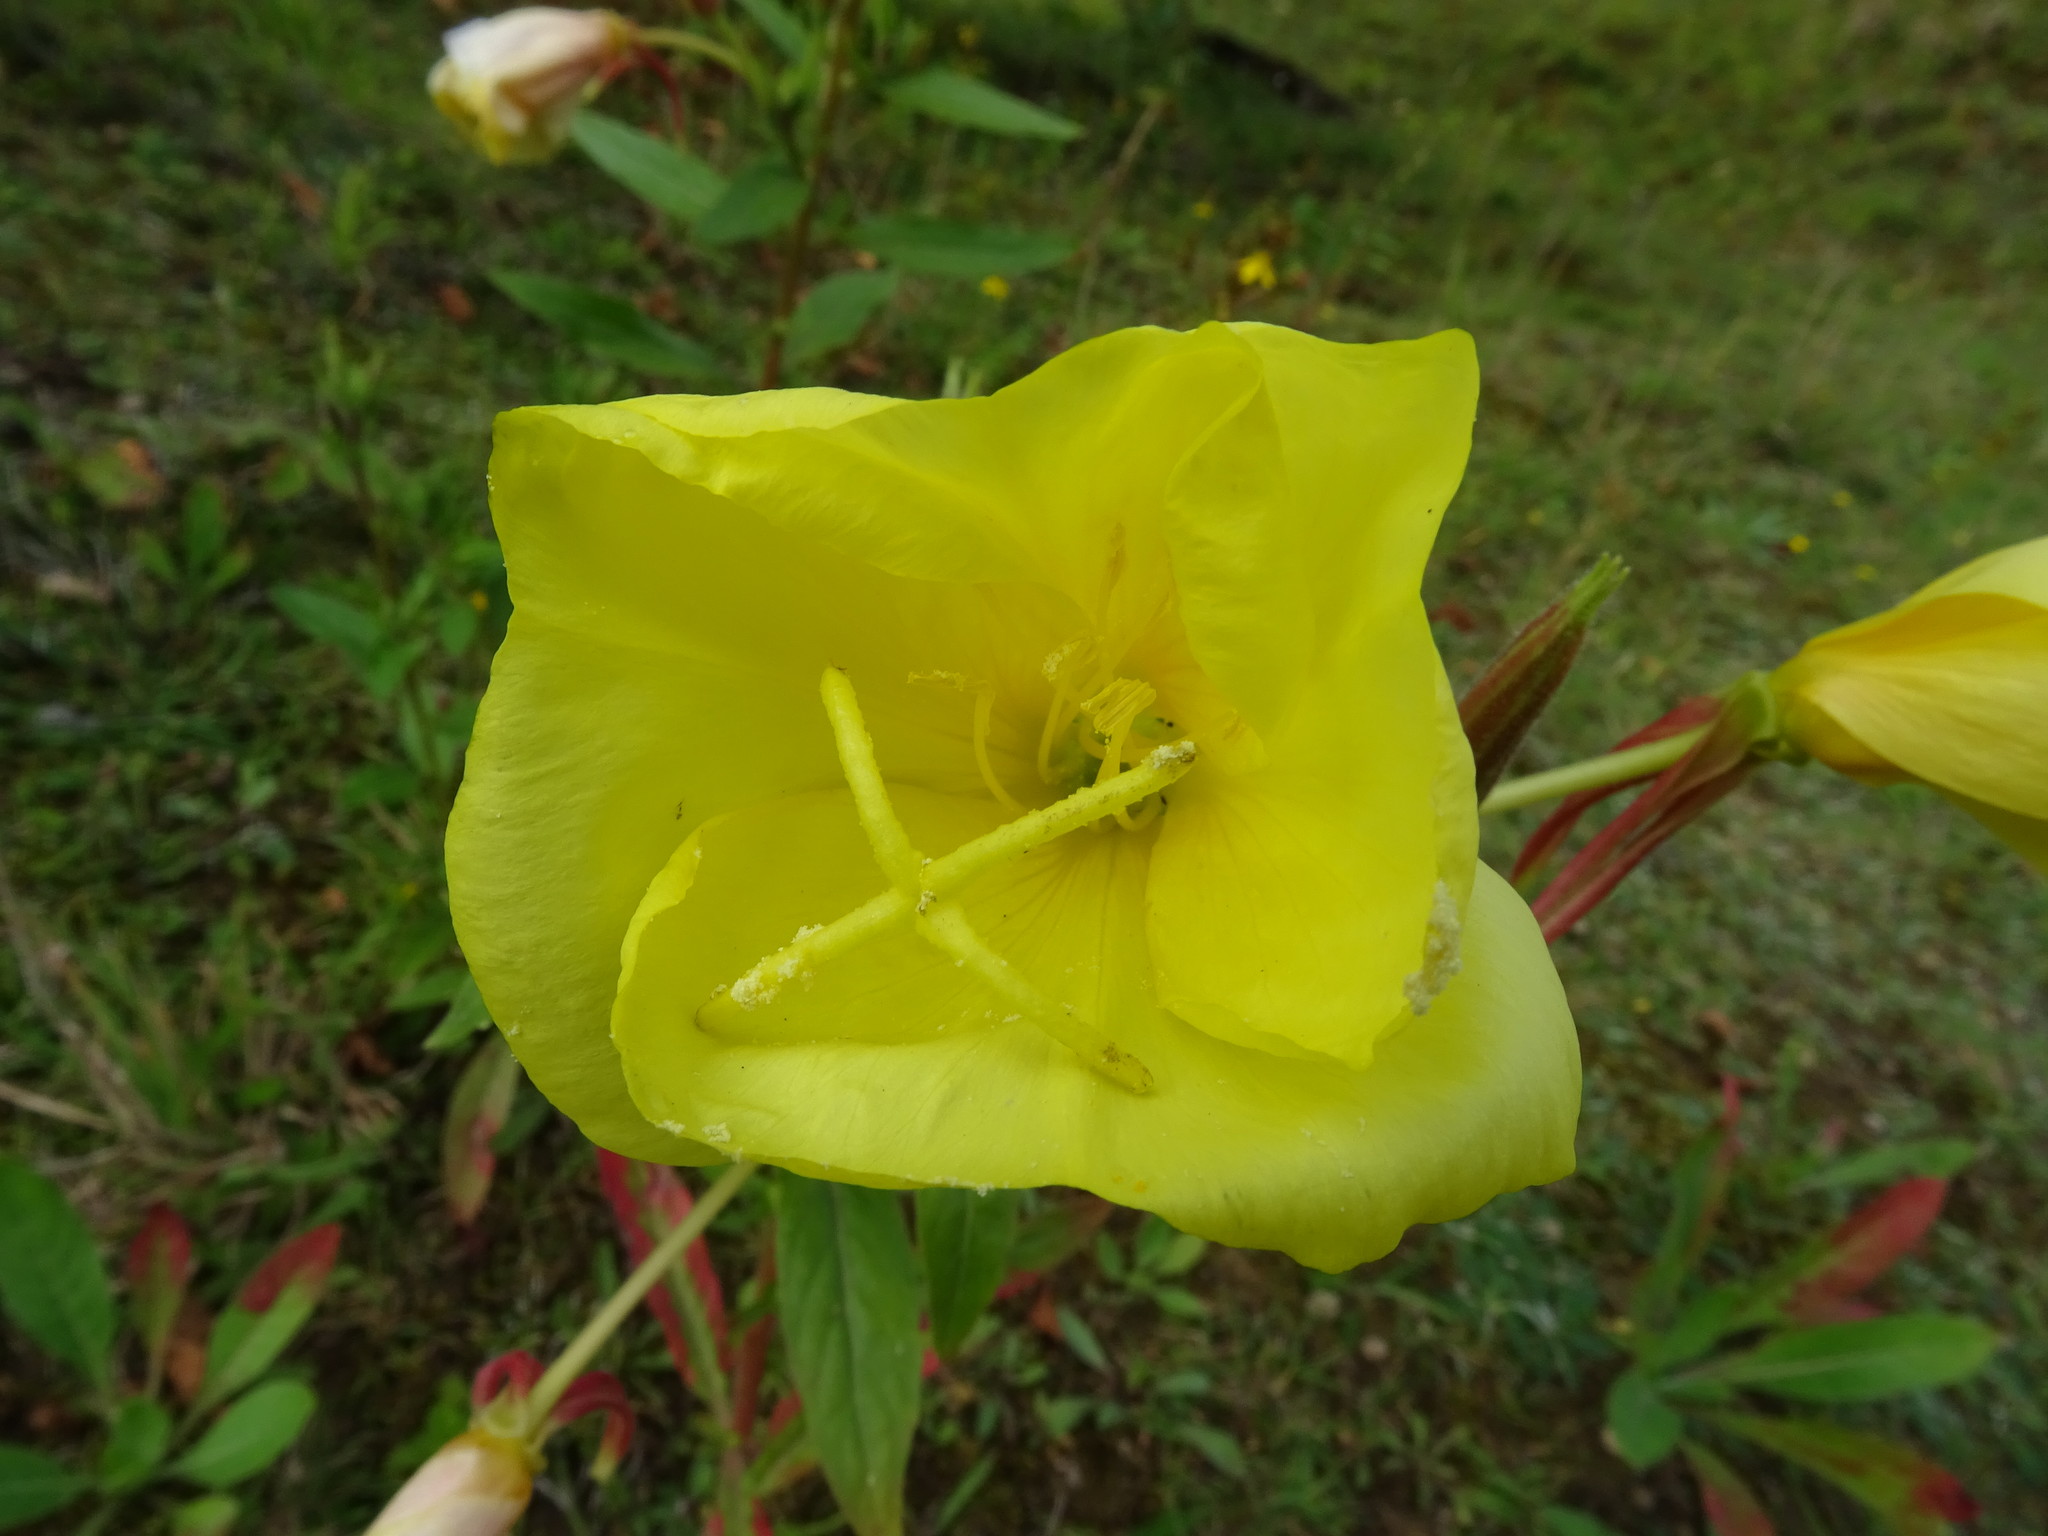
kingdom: Plantae
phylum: Tracheophyta
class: Magnoliopsida
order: Myrtales
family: Onagraceae
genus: Oenothera
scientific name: Oenothera glazioviana
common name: Large-flowered evening-primrose
